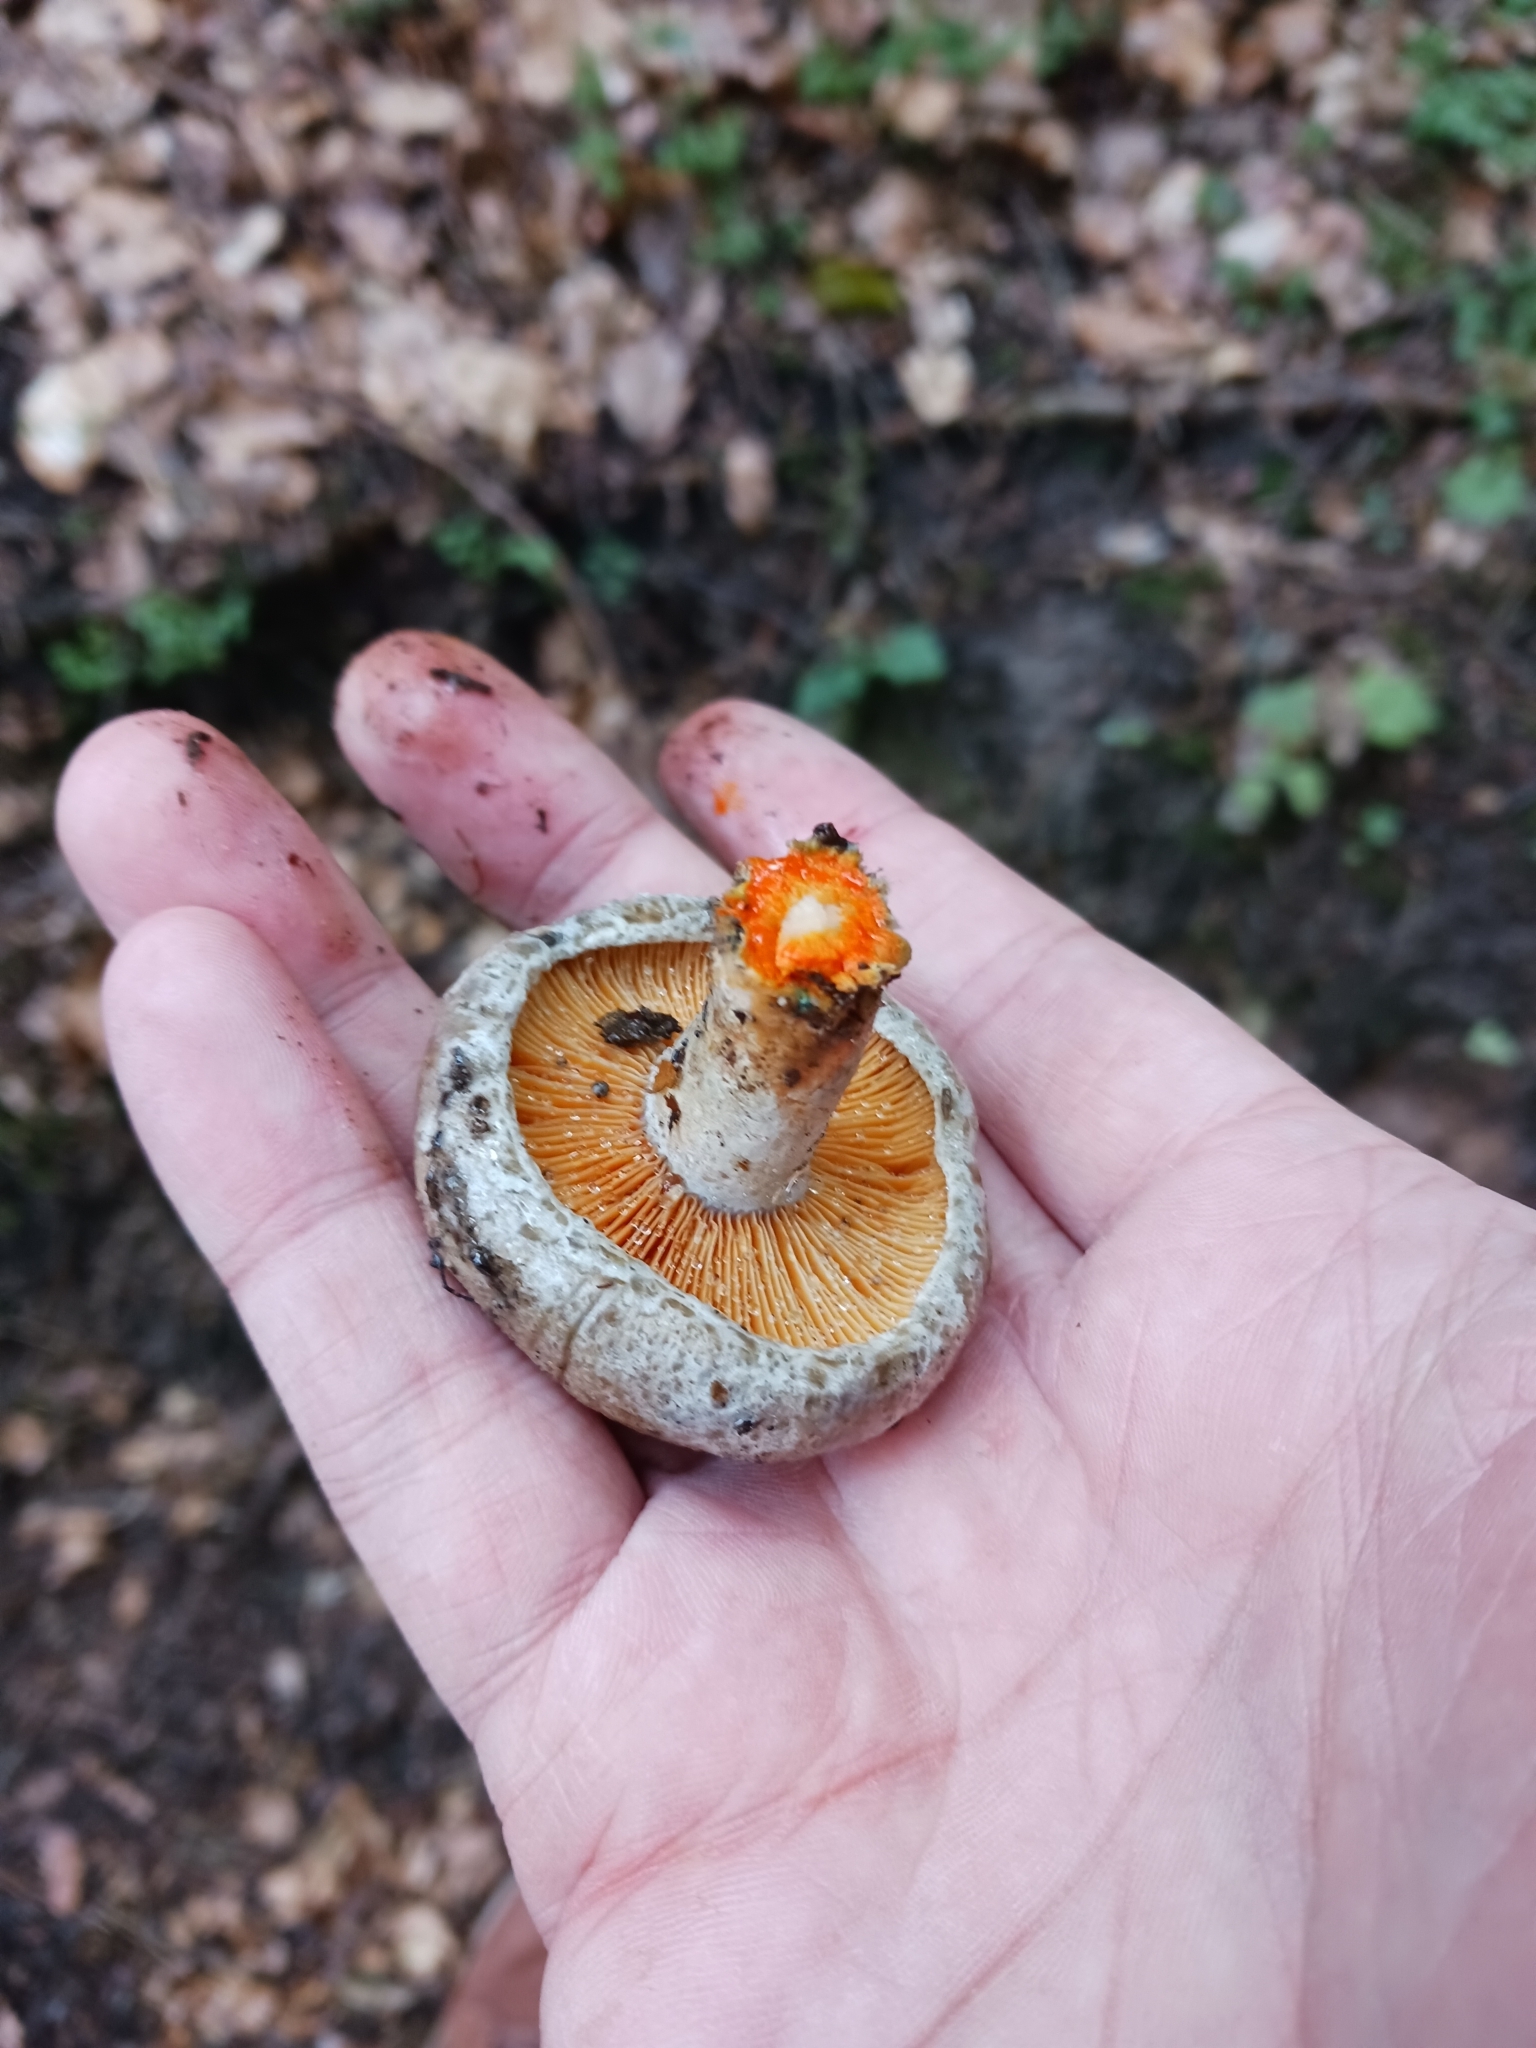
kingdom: Fungi
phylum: Basidiomycota
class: Agaricomycetes
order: Russulales
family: Russulaceae
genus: Lactarius
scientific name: Lactarius deterrimus
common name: False saffron milkcap
